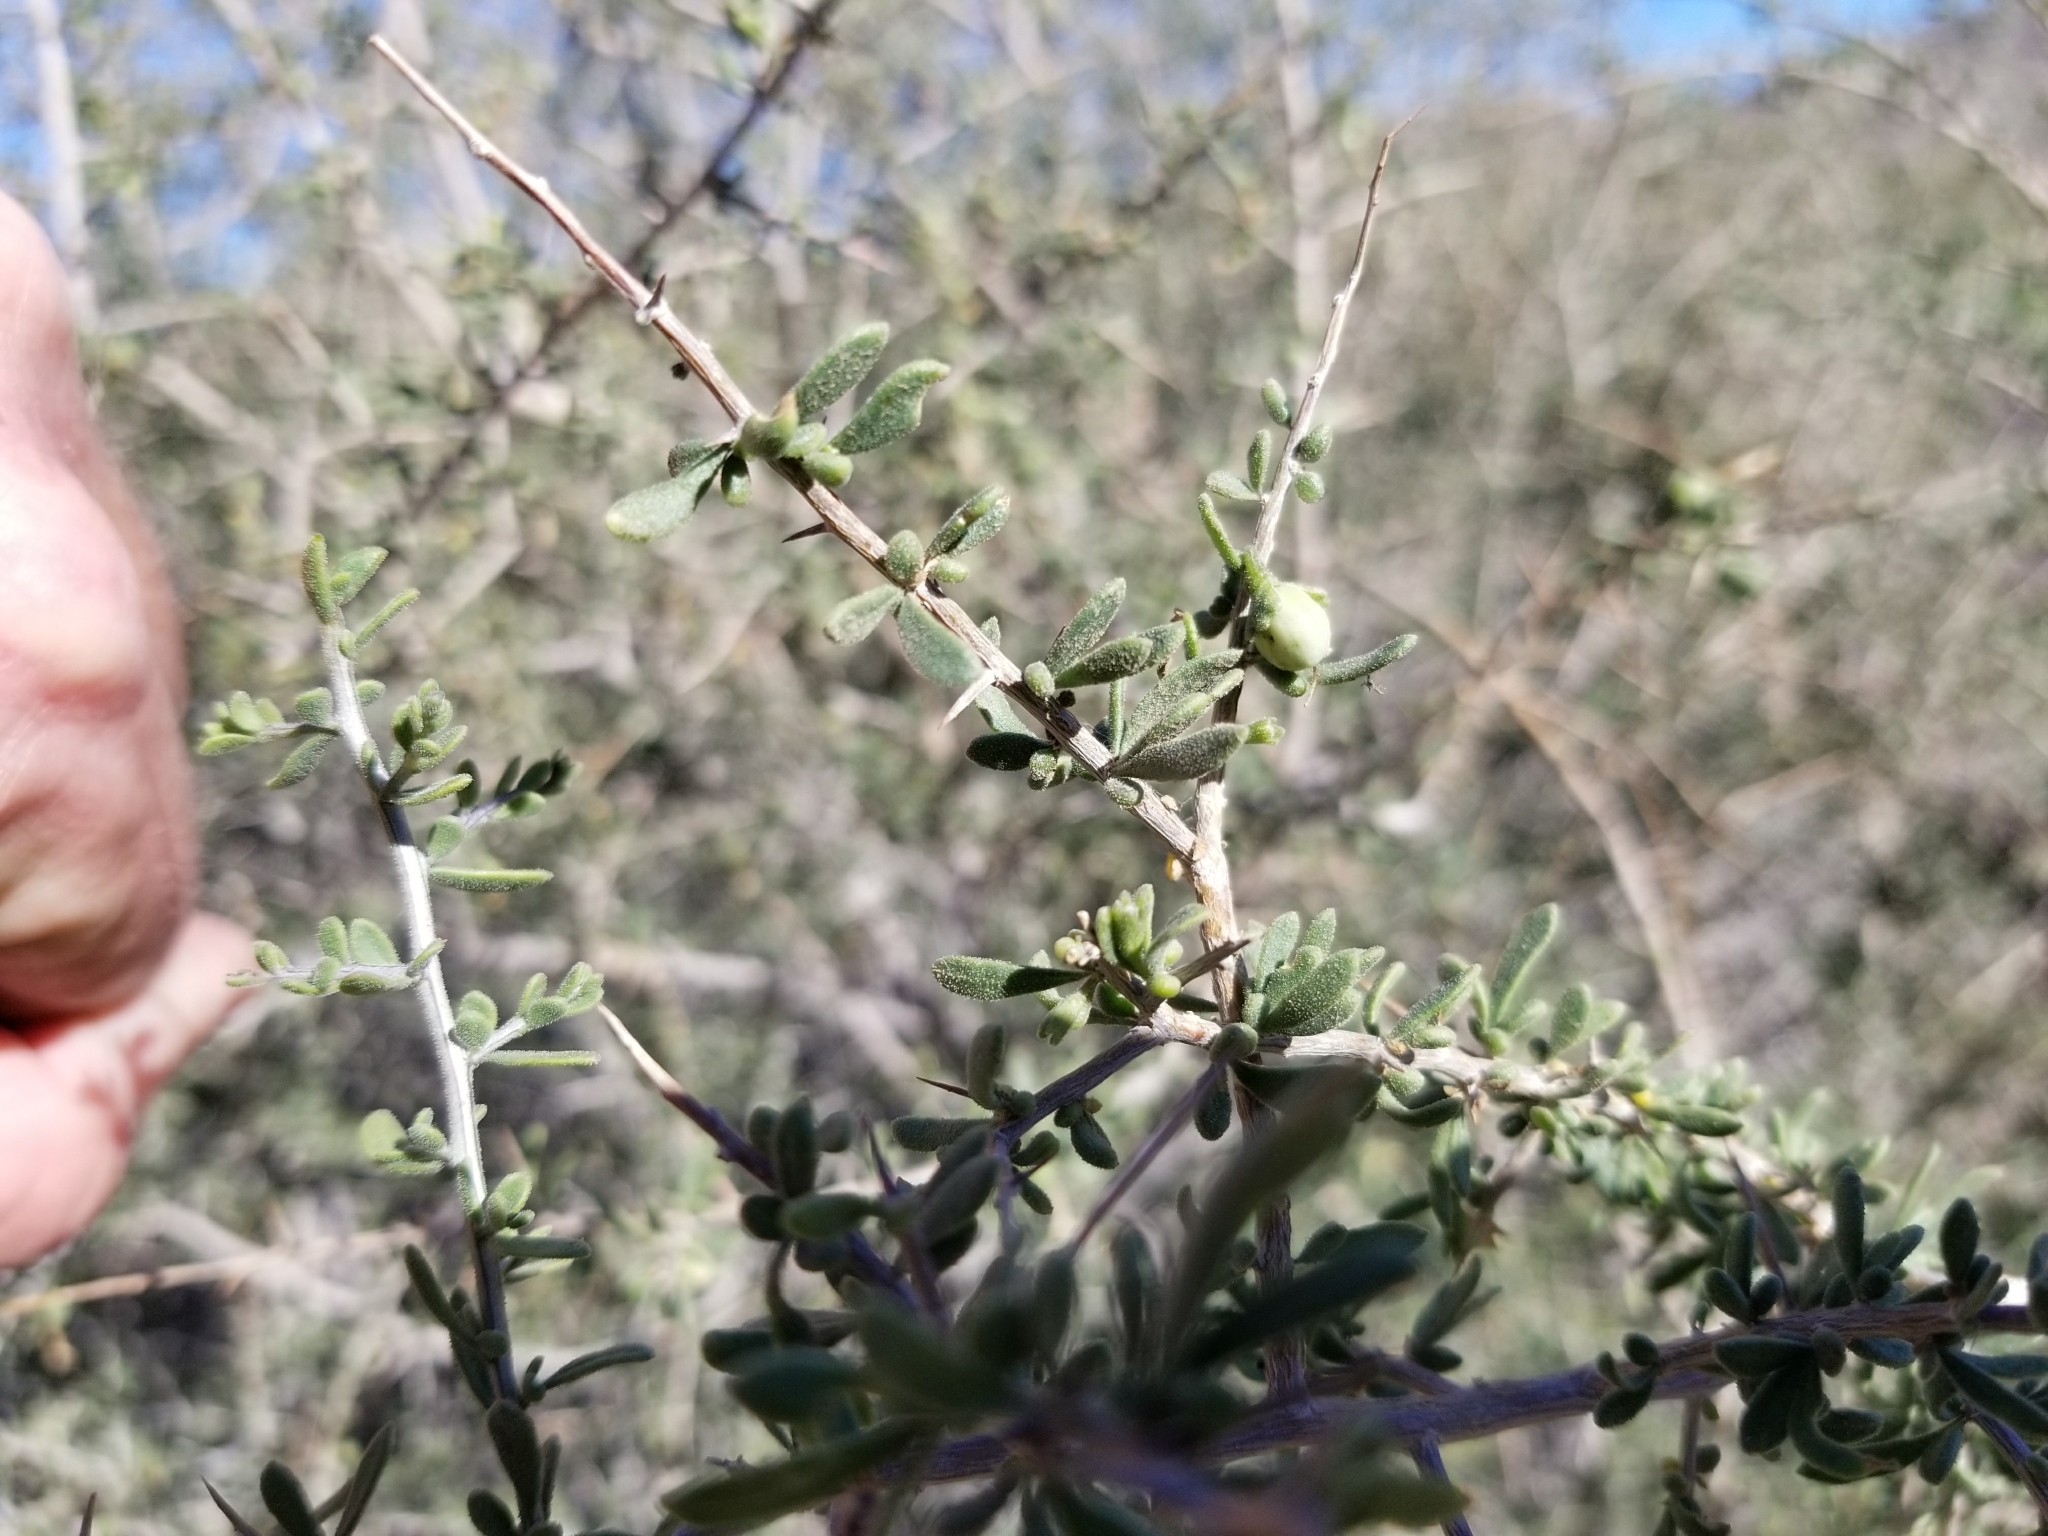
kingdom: Plantae
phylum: Tracheophyta
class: Magnoliopsida
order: Solanales
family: Solanaceae
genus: Lycium
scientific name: Lycium andersonii
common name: Water-jacket
